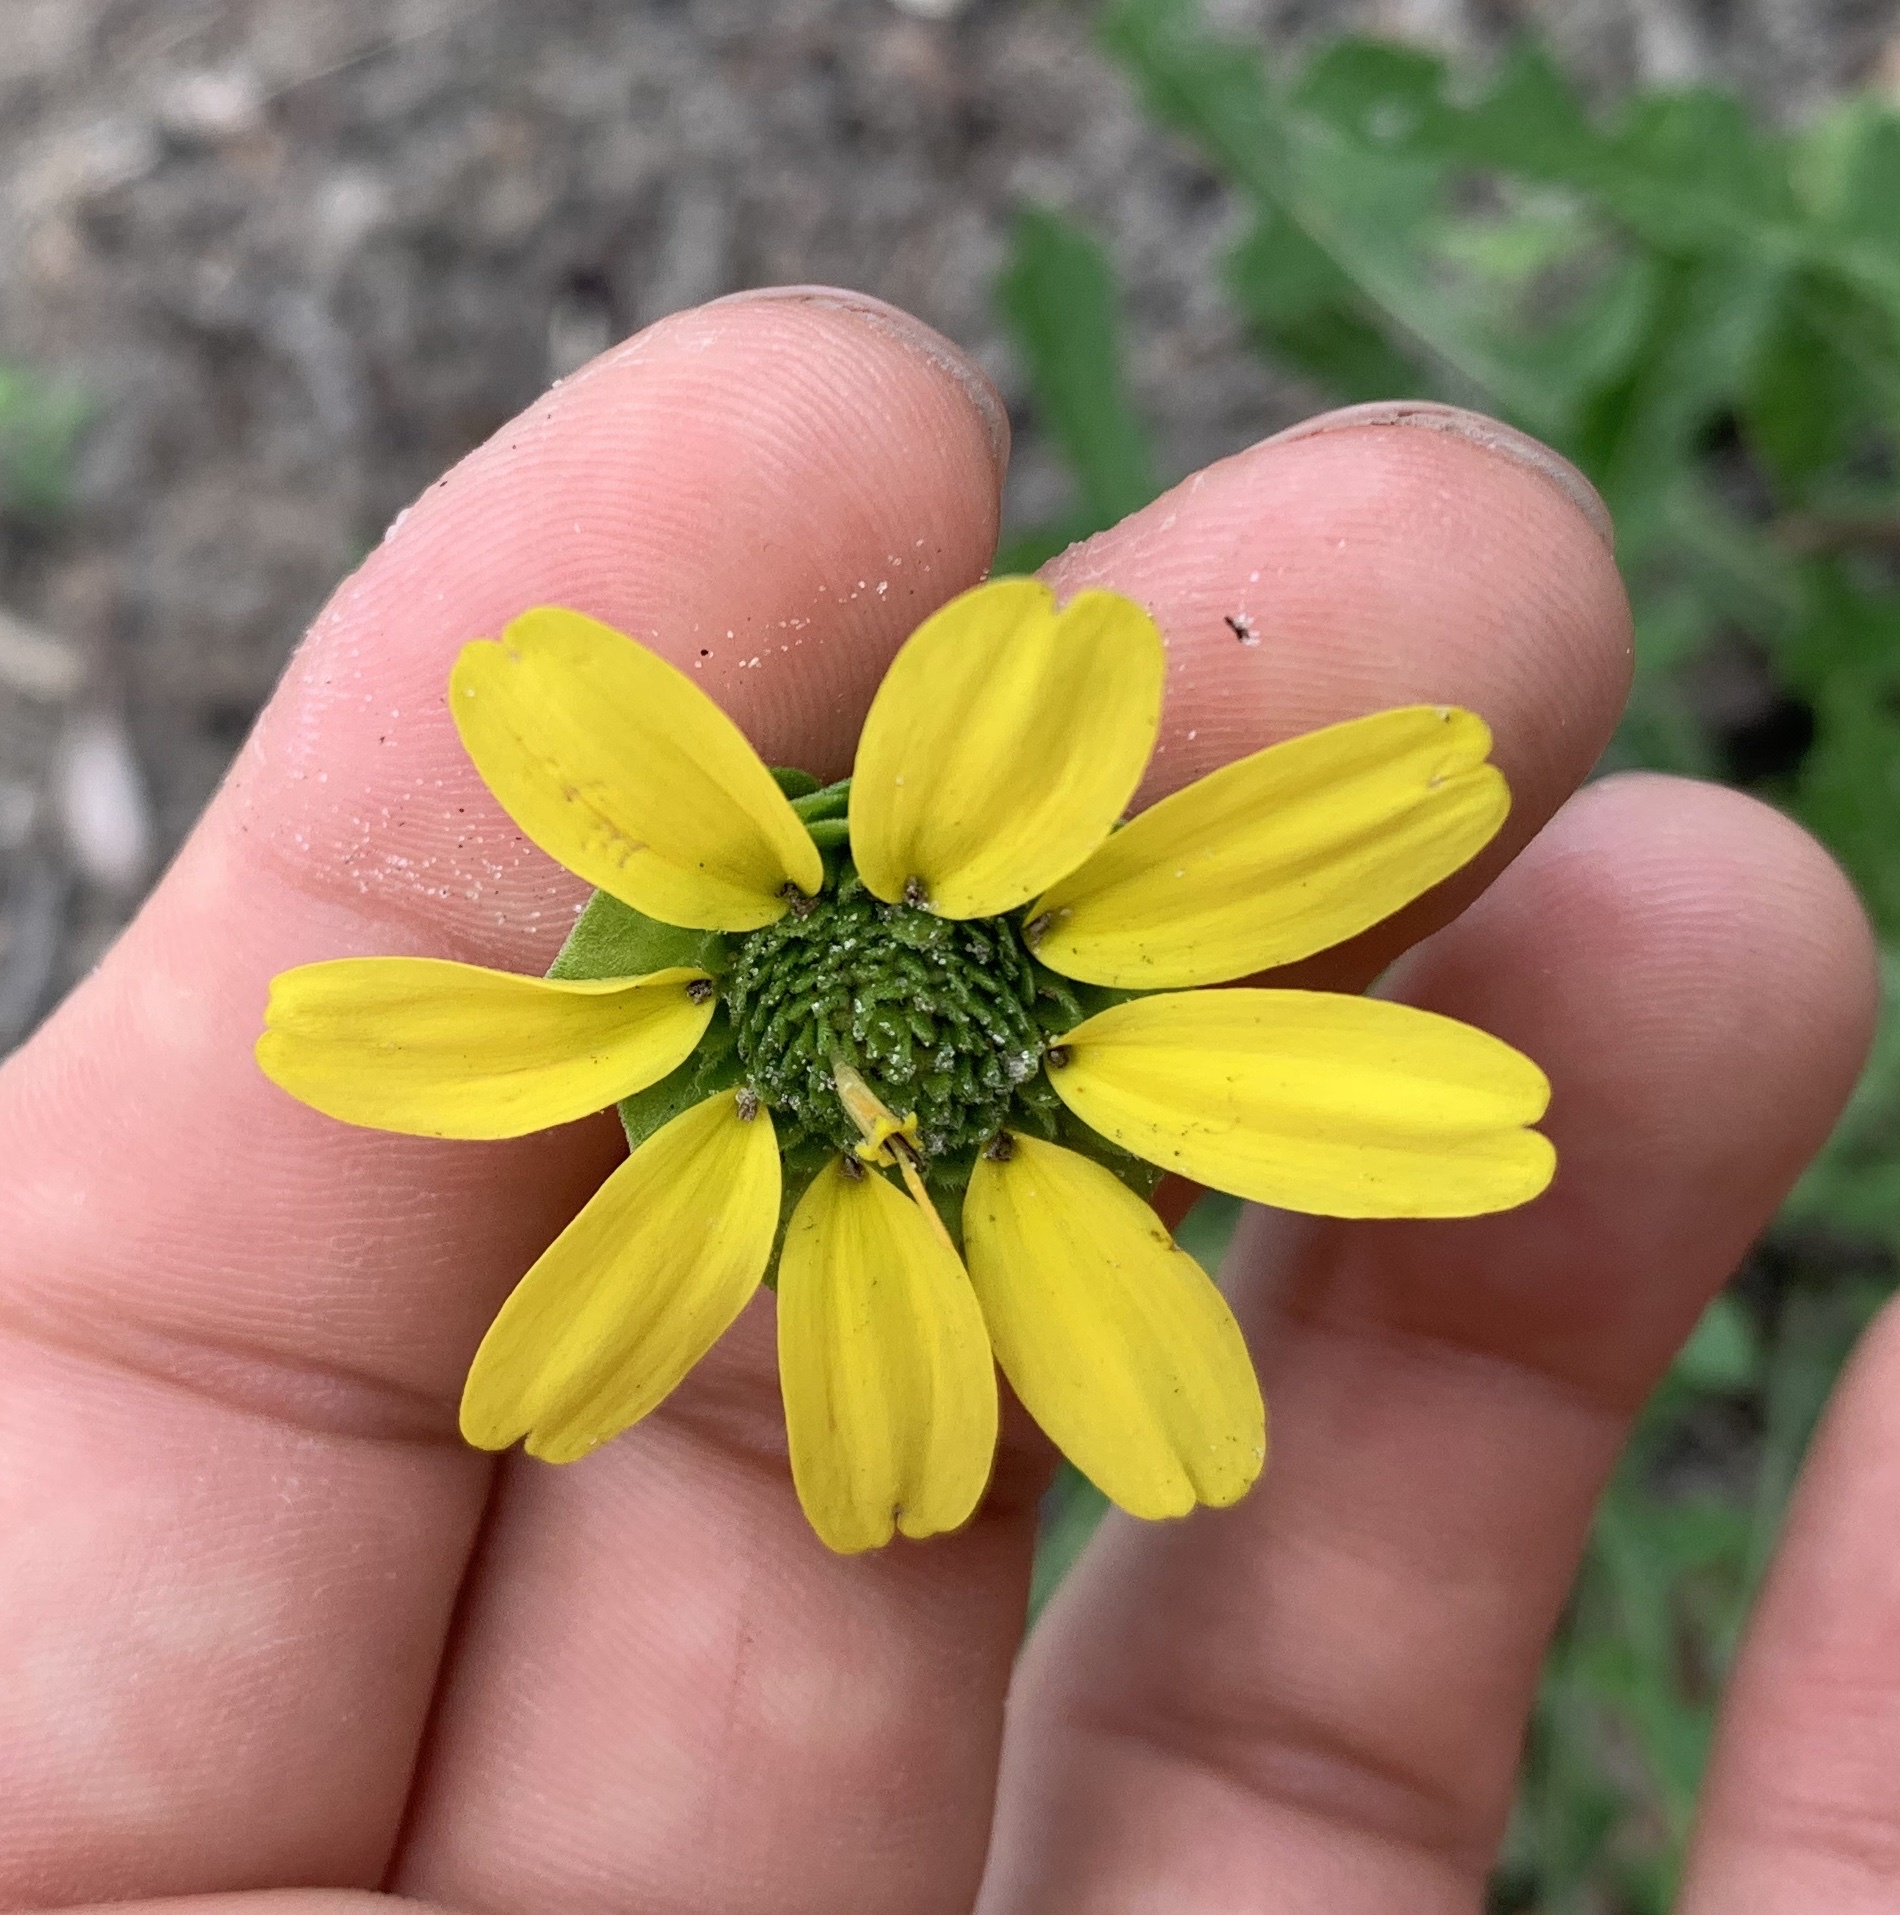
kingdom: Plantae
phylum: Tracheophyta
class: Magnoliopsida
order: Asterales
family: Asteraceae
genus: Berlandiera
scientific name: Berlandiera subacaulis
